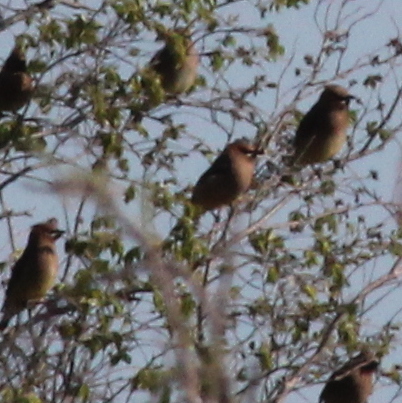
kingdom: Animalia
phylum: Chordata
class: Aves
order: Passeriformes
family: Bombycillidae
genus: Bombycilla
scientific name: Bombycilla cedrorum
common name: Cedar waxwing
